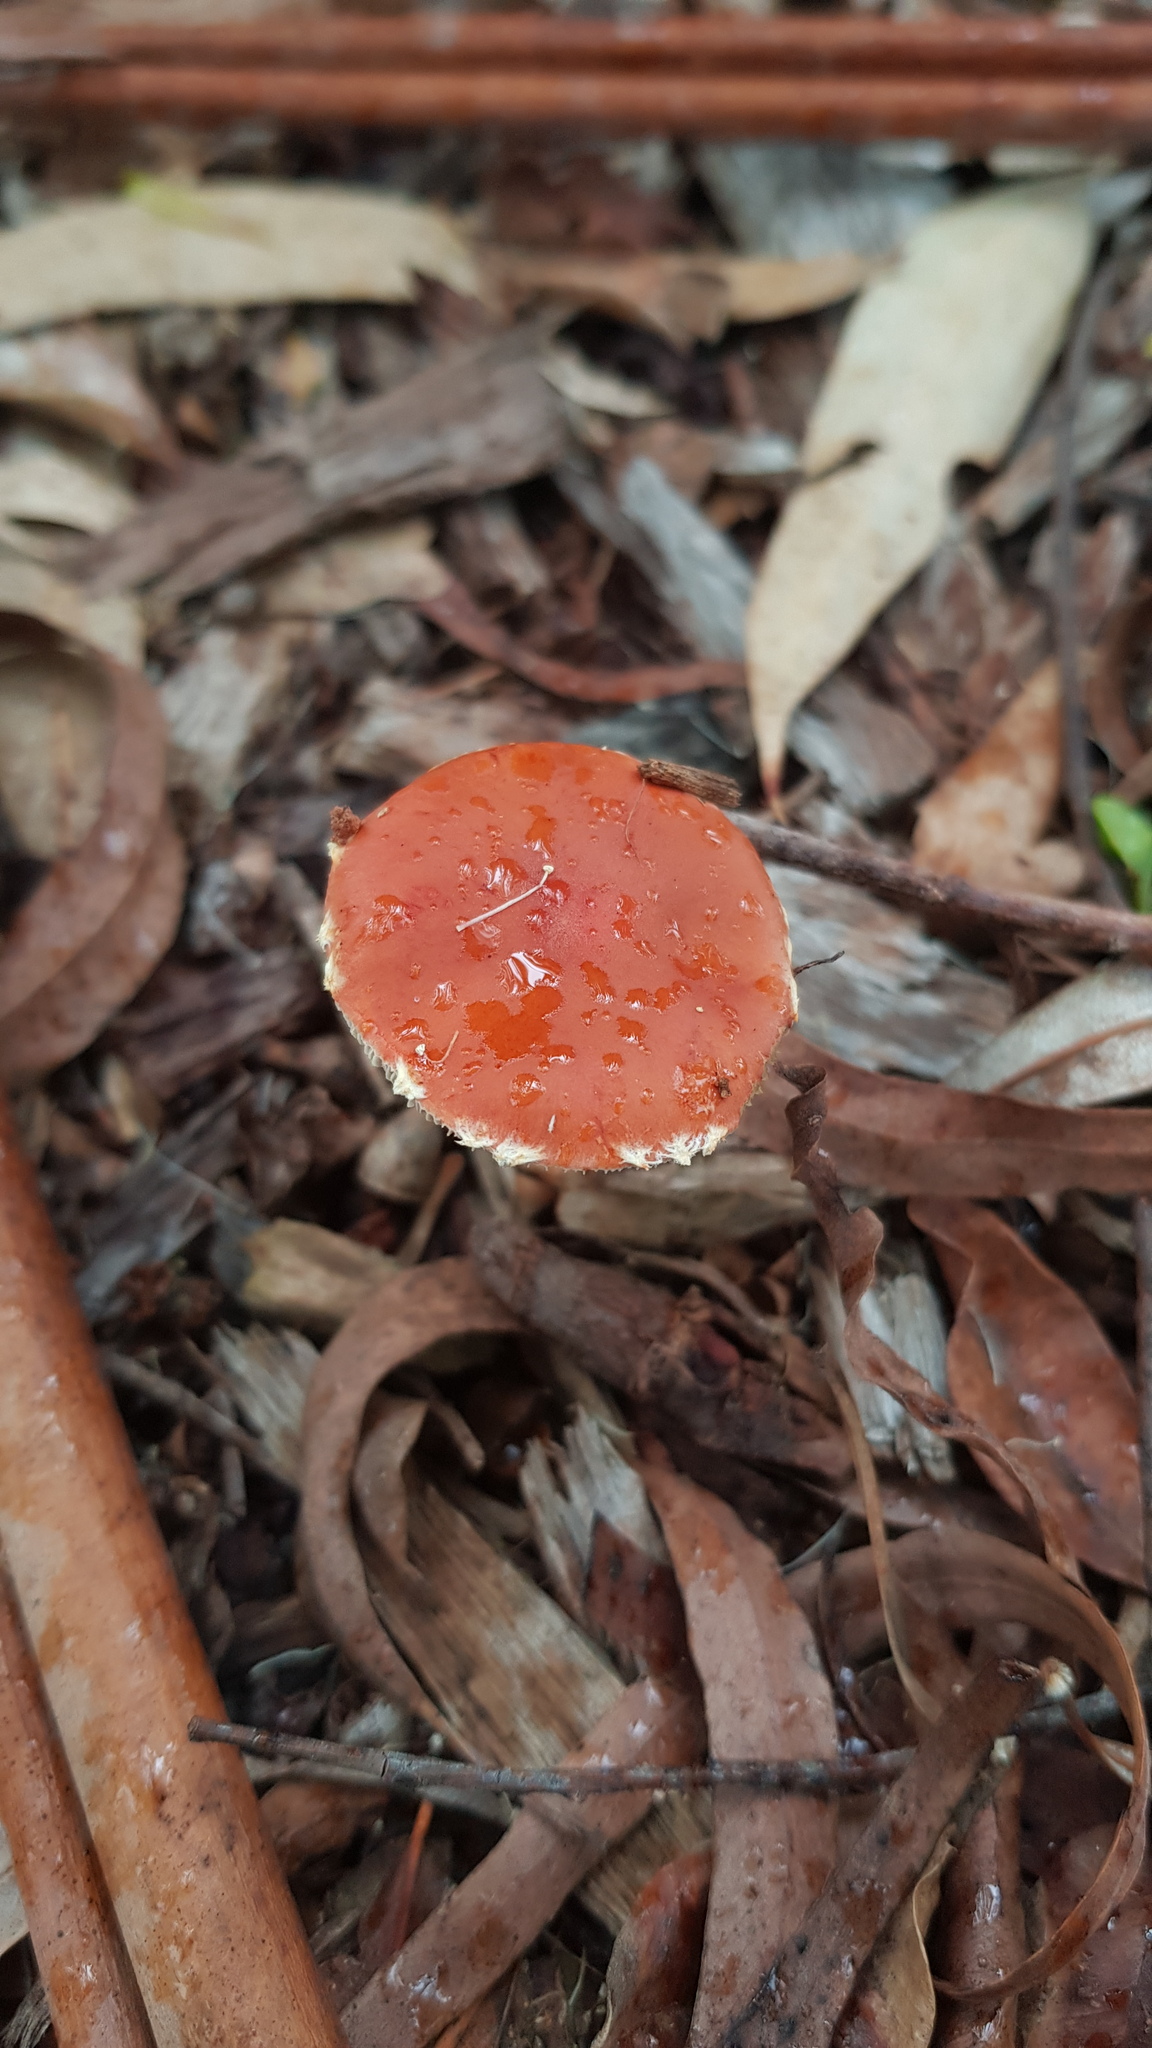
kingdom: Fungi
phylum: Basidiomycota
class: Agaricomycetes
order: Agaricales
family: Strophariaceae
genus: Leratiomyces
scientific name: Leratiomyces ceres
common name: Redlead roundhead
